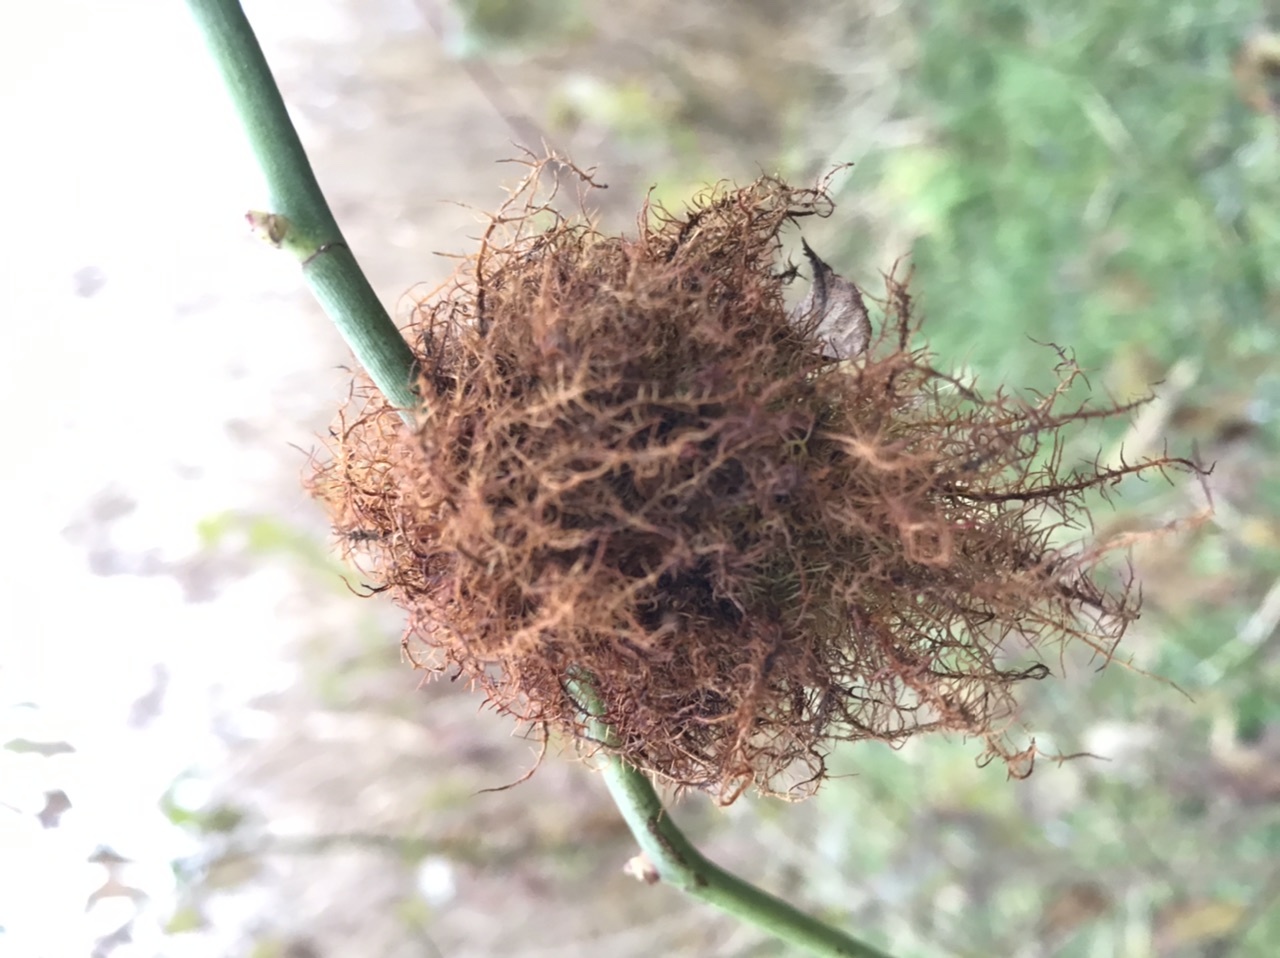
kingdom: Animalia
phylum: Arthropoda
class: Insecta
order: Hymenoptera
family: Cynipidae
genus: Diplolepis
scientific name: Diplolepis rosae
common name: Bedeguar gall
